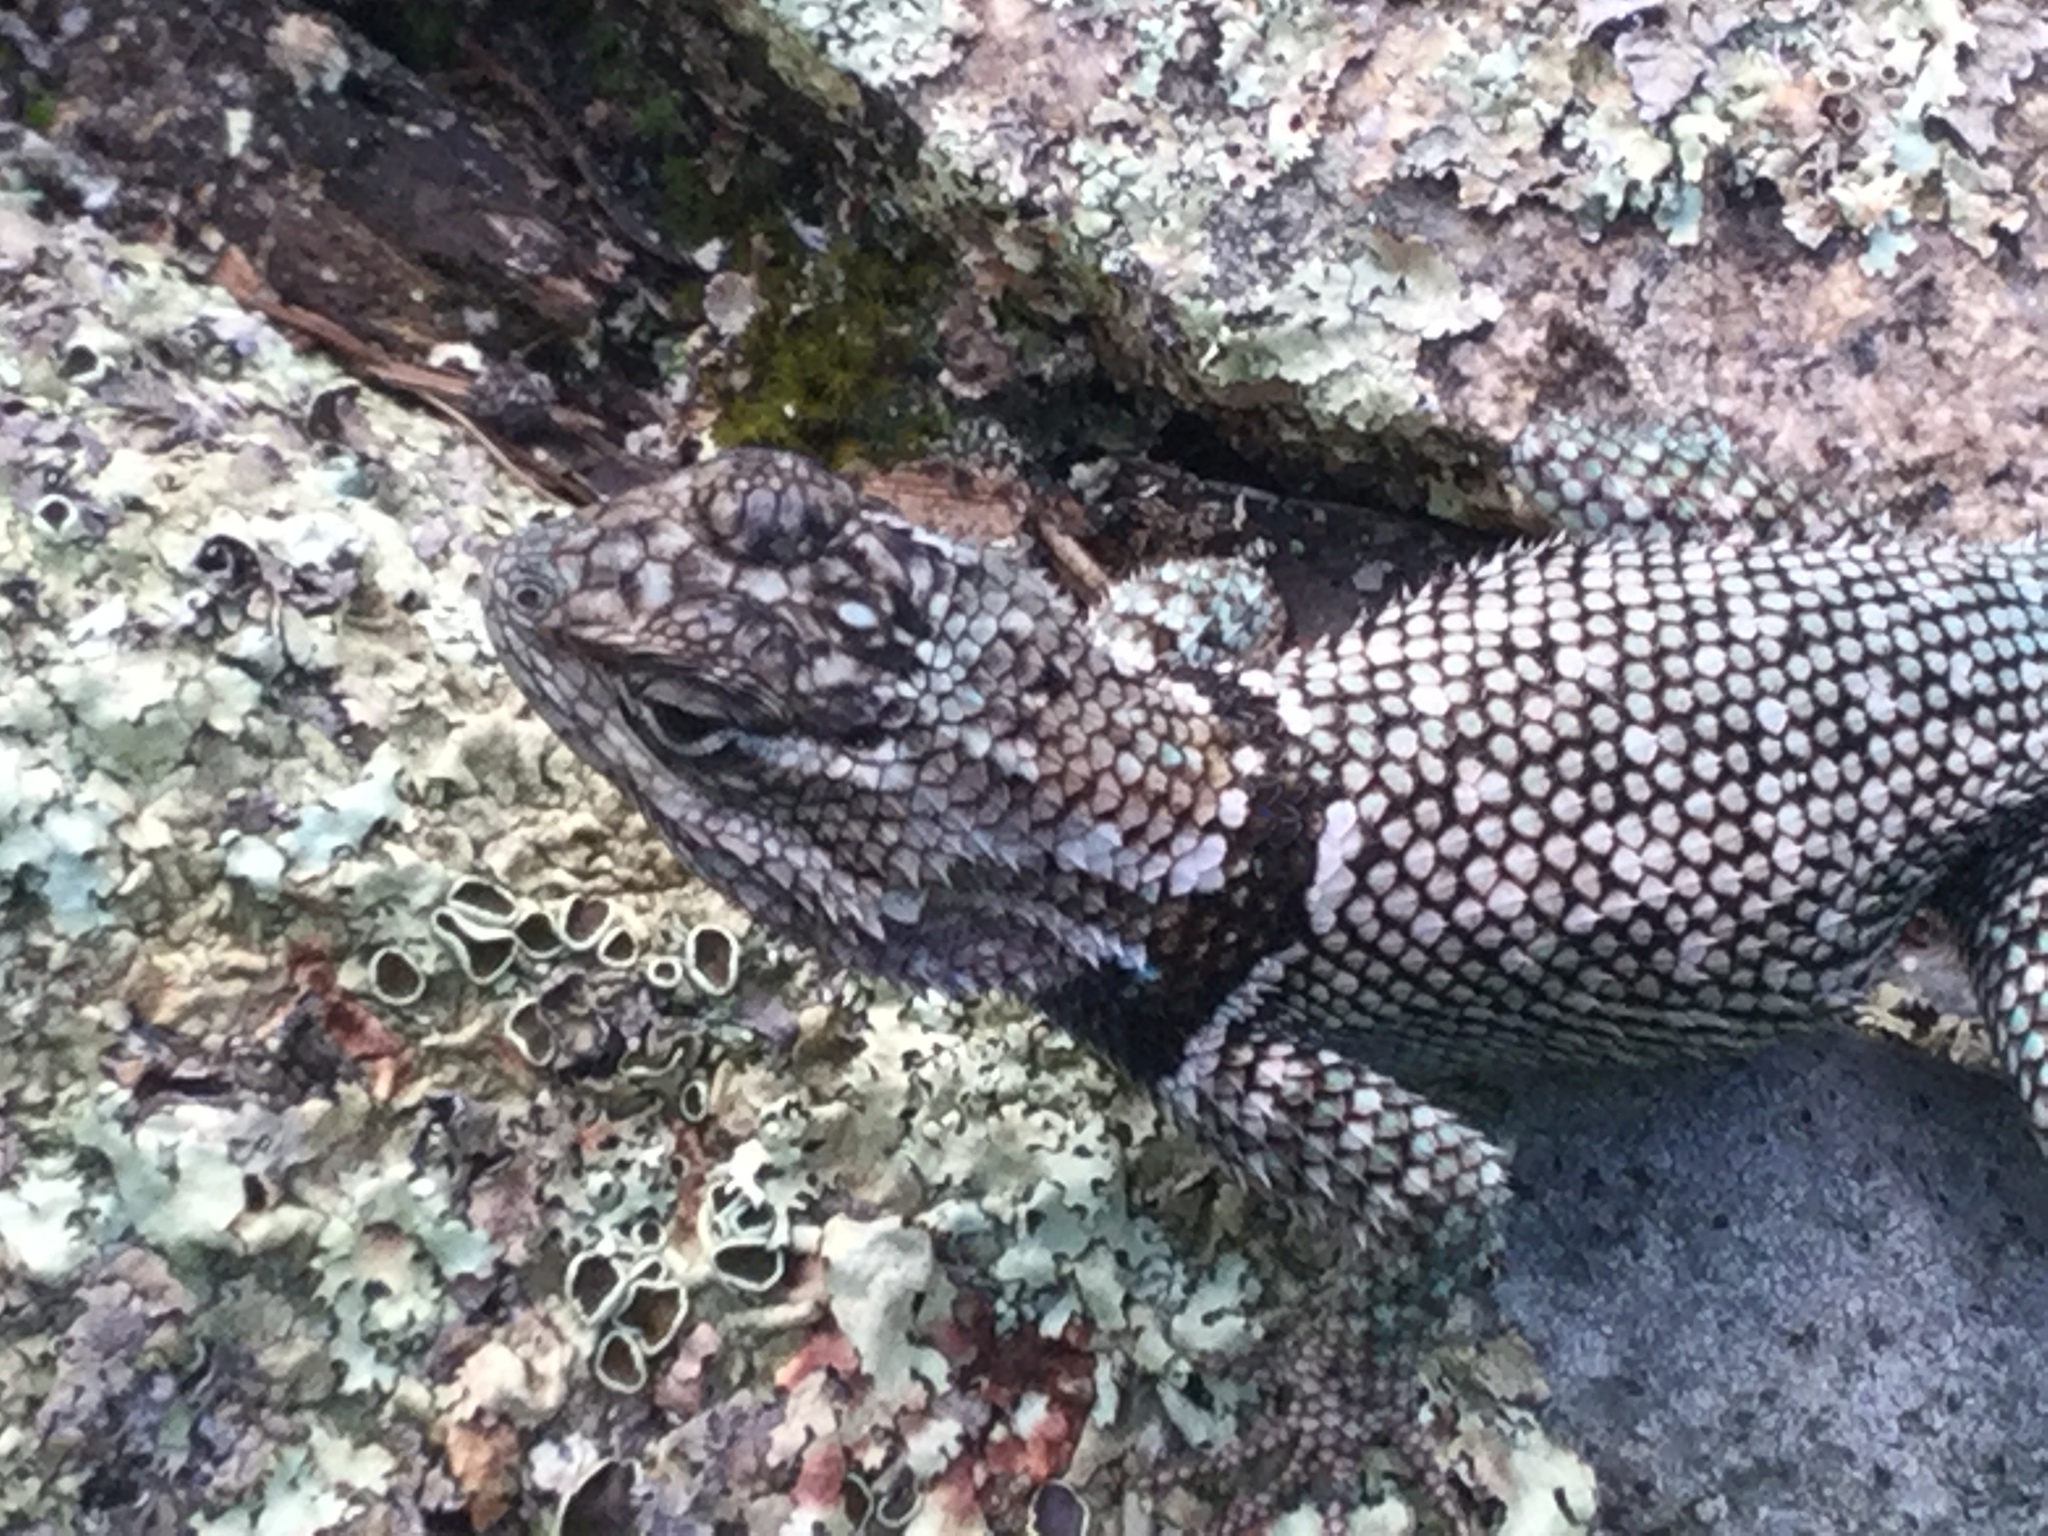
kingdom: Animalia
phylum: Chordata
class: Squamata
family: Phrynosomatidae
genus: Sceloporus
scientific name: Sceloporus jarrovii
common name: Yarrow's spiny lizard
